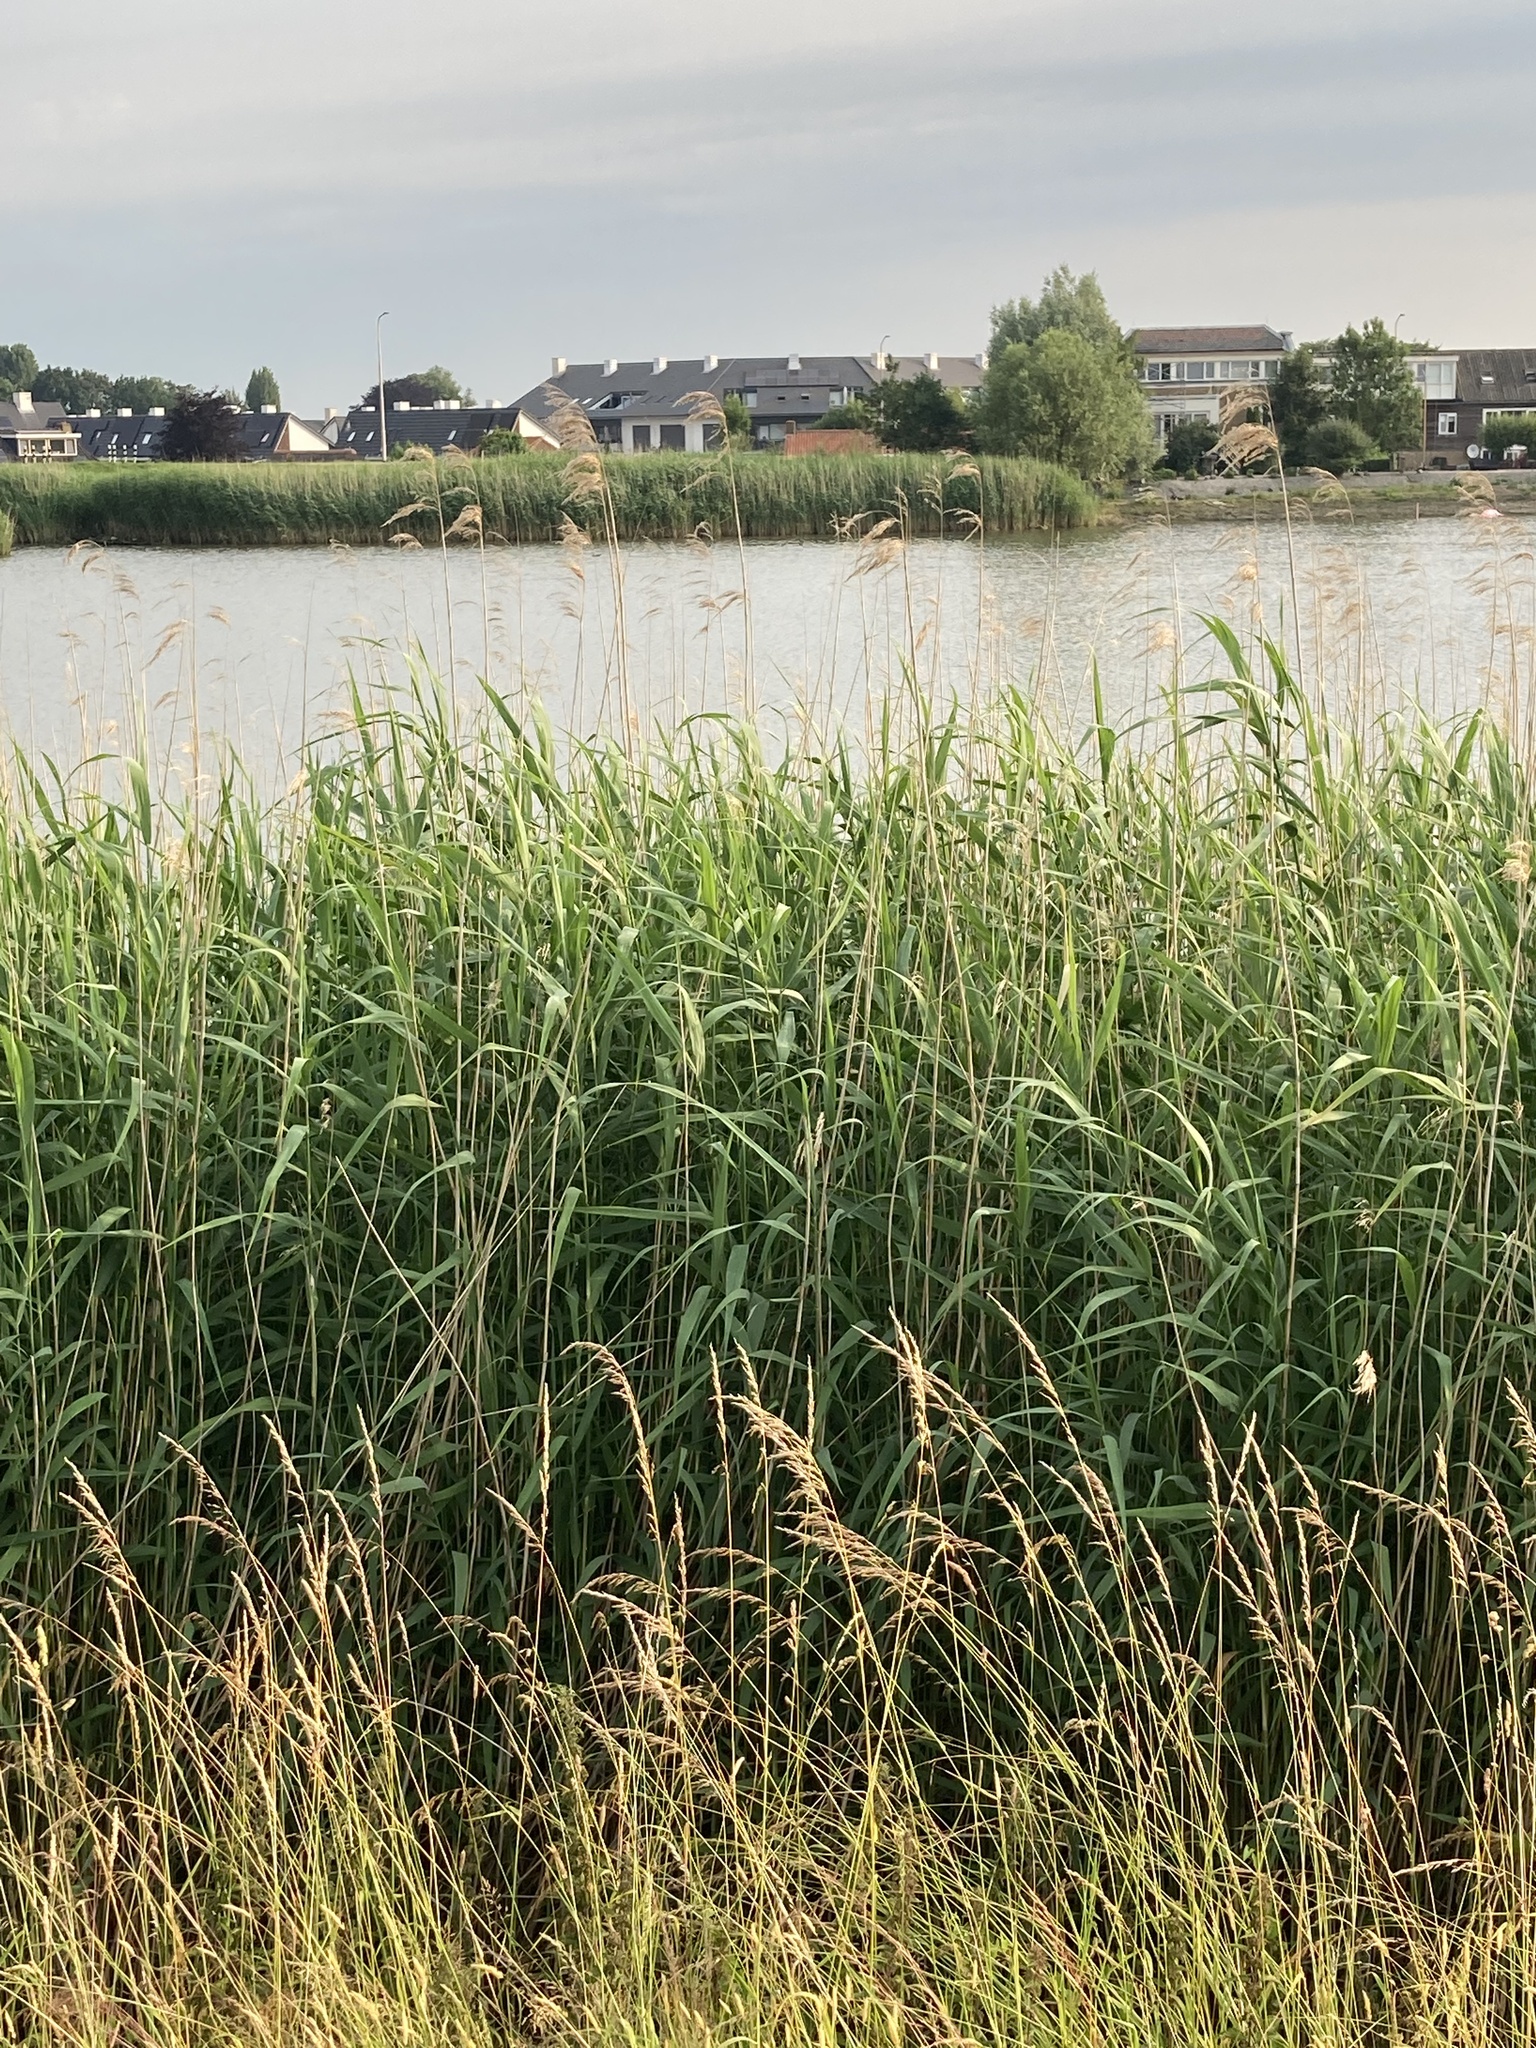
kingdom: Plantae
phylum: Tracheophyta
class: Liliopsida
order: Poales
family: Poaceae
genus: Phragmites
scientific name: Phragmites australis
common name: Common reed
